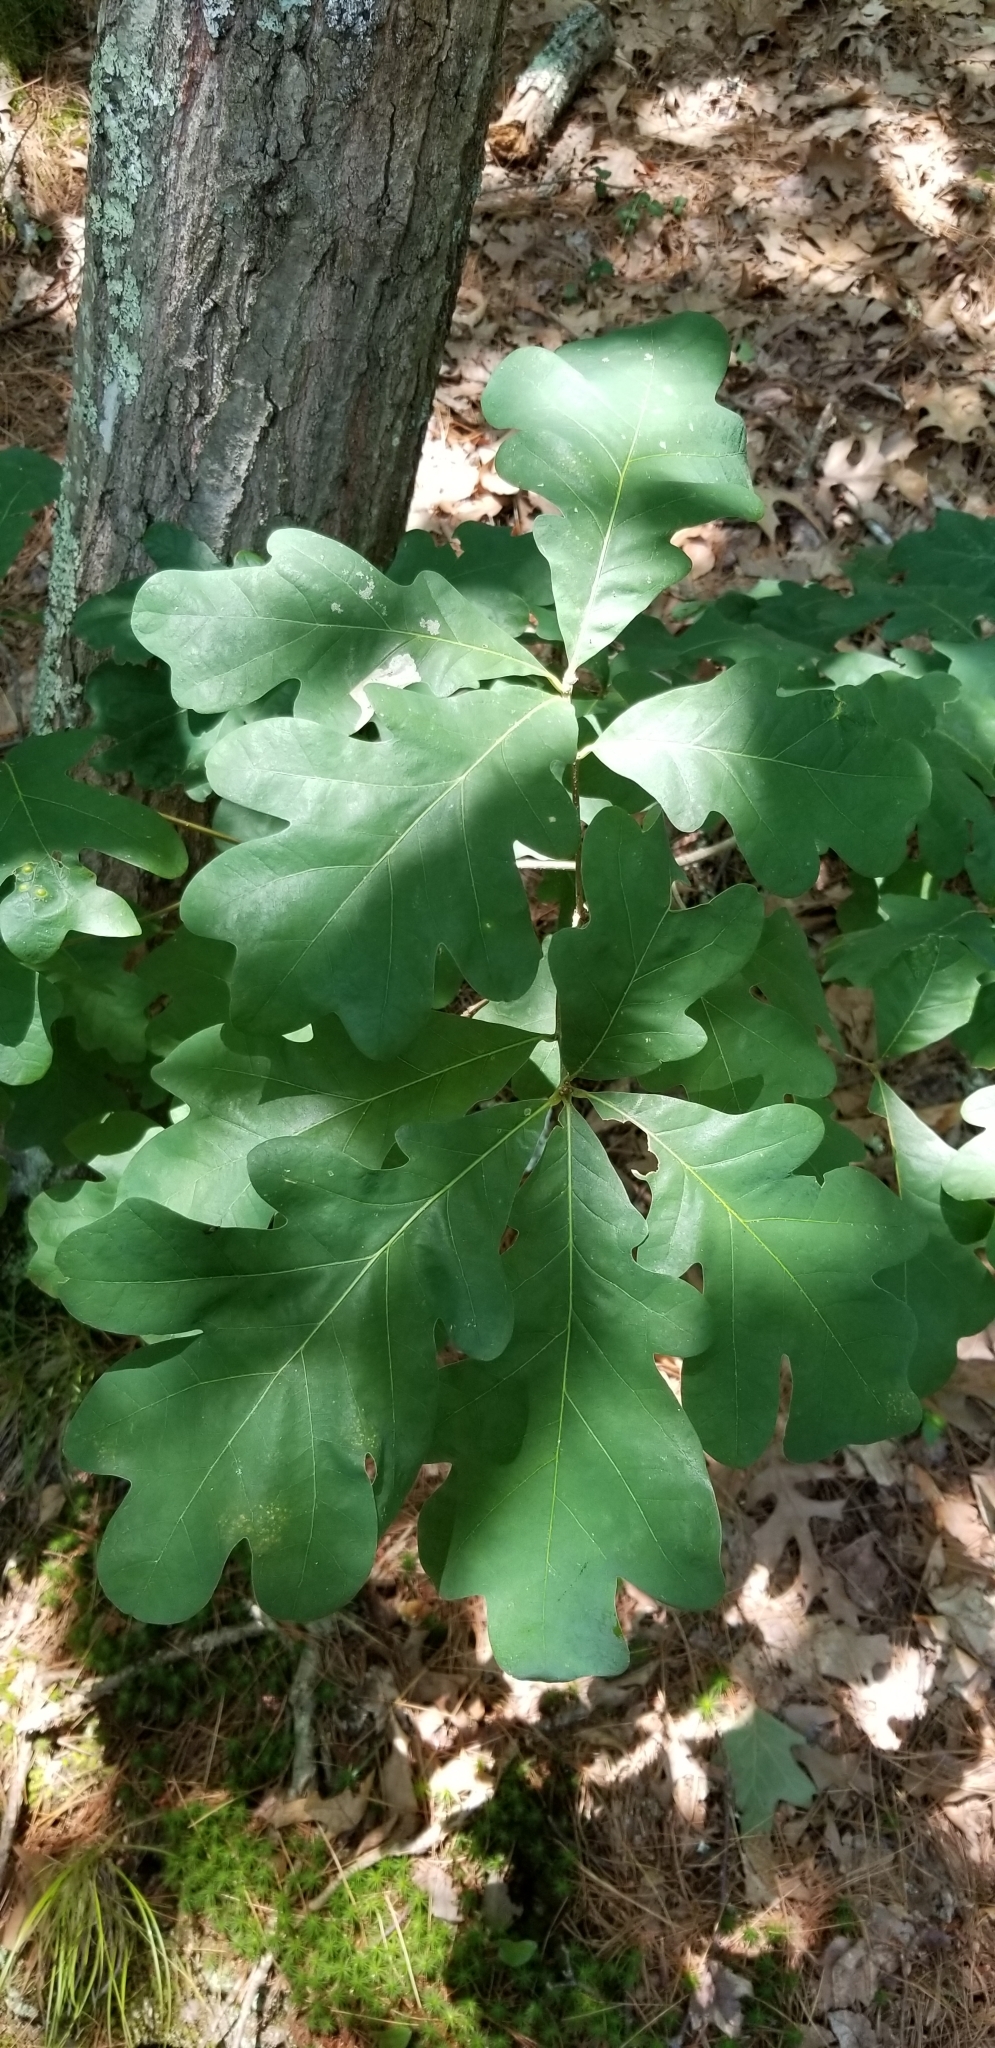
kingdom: Plantae
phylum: Tracheophyta
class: Magnoliopsida
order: Fagales
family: Fagaceae
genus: Quercus
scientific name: Quercus alba
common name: White oak
